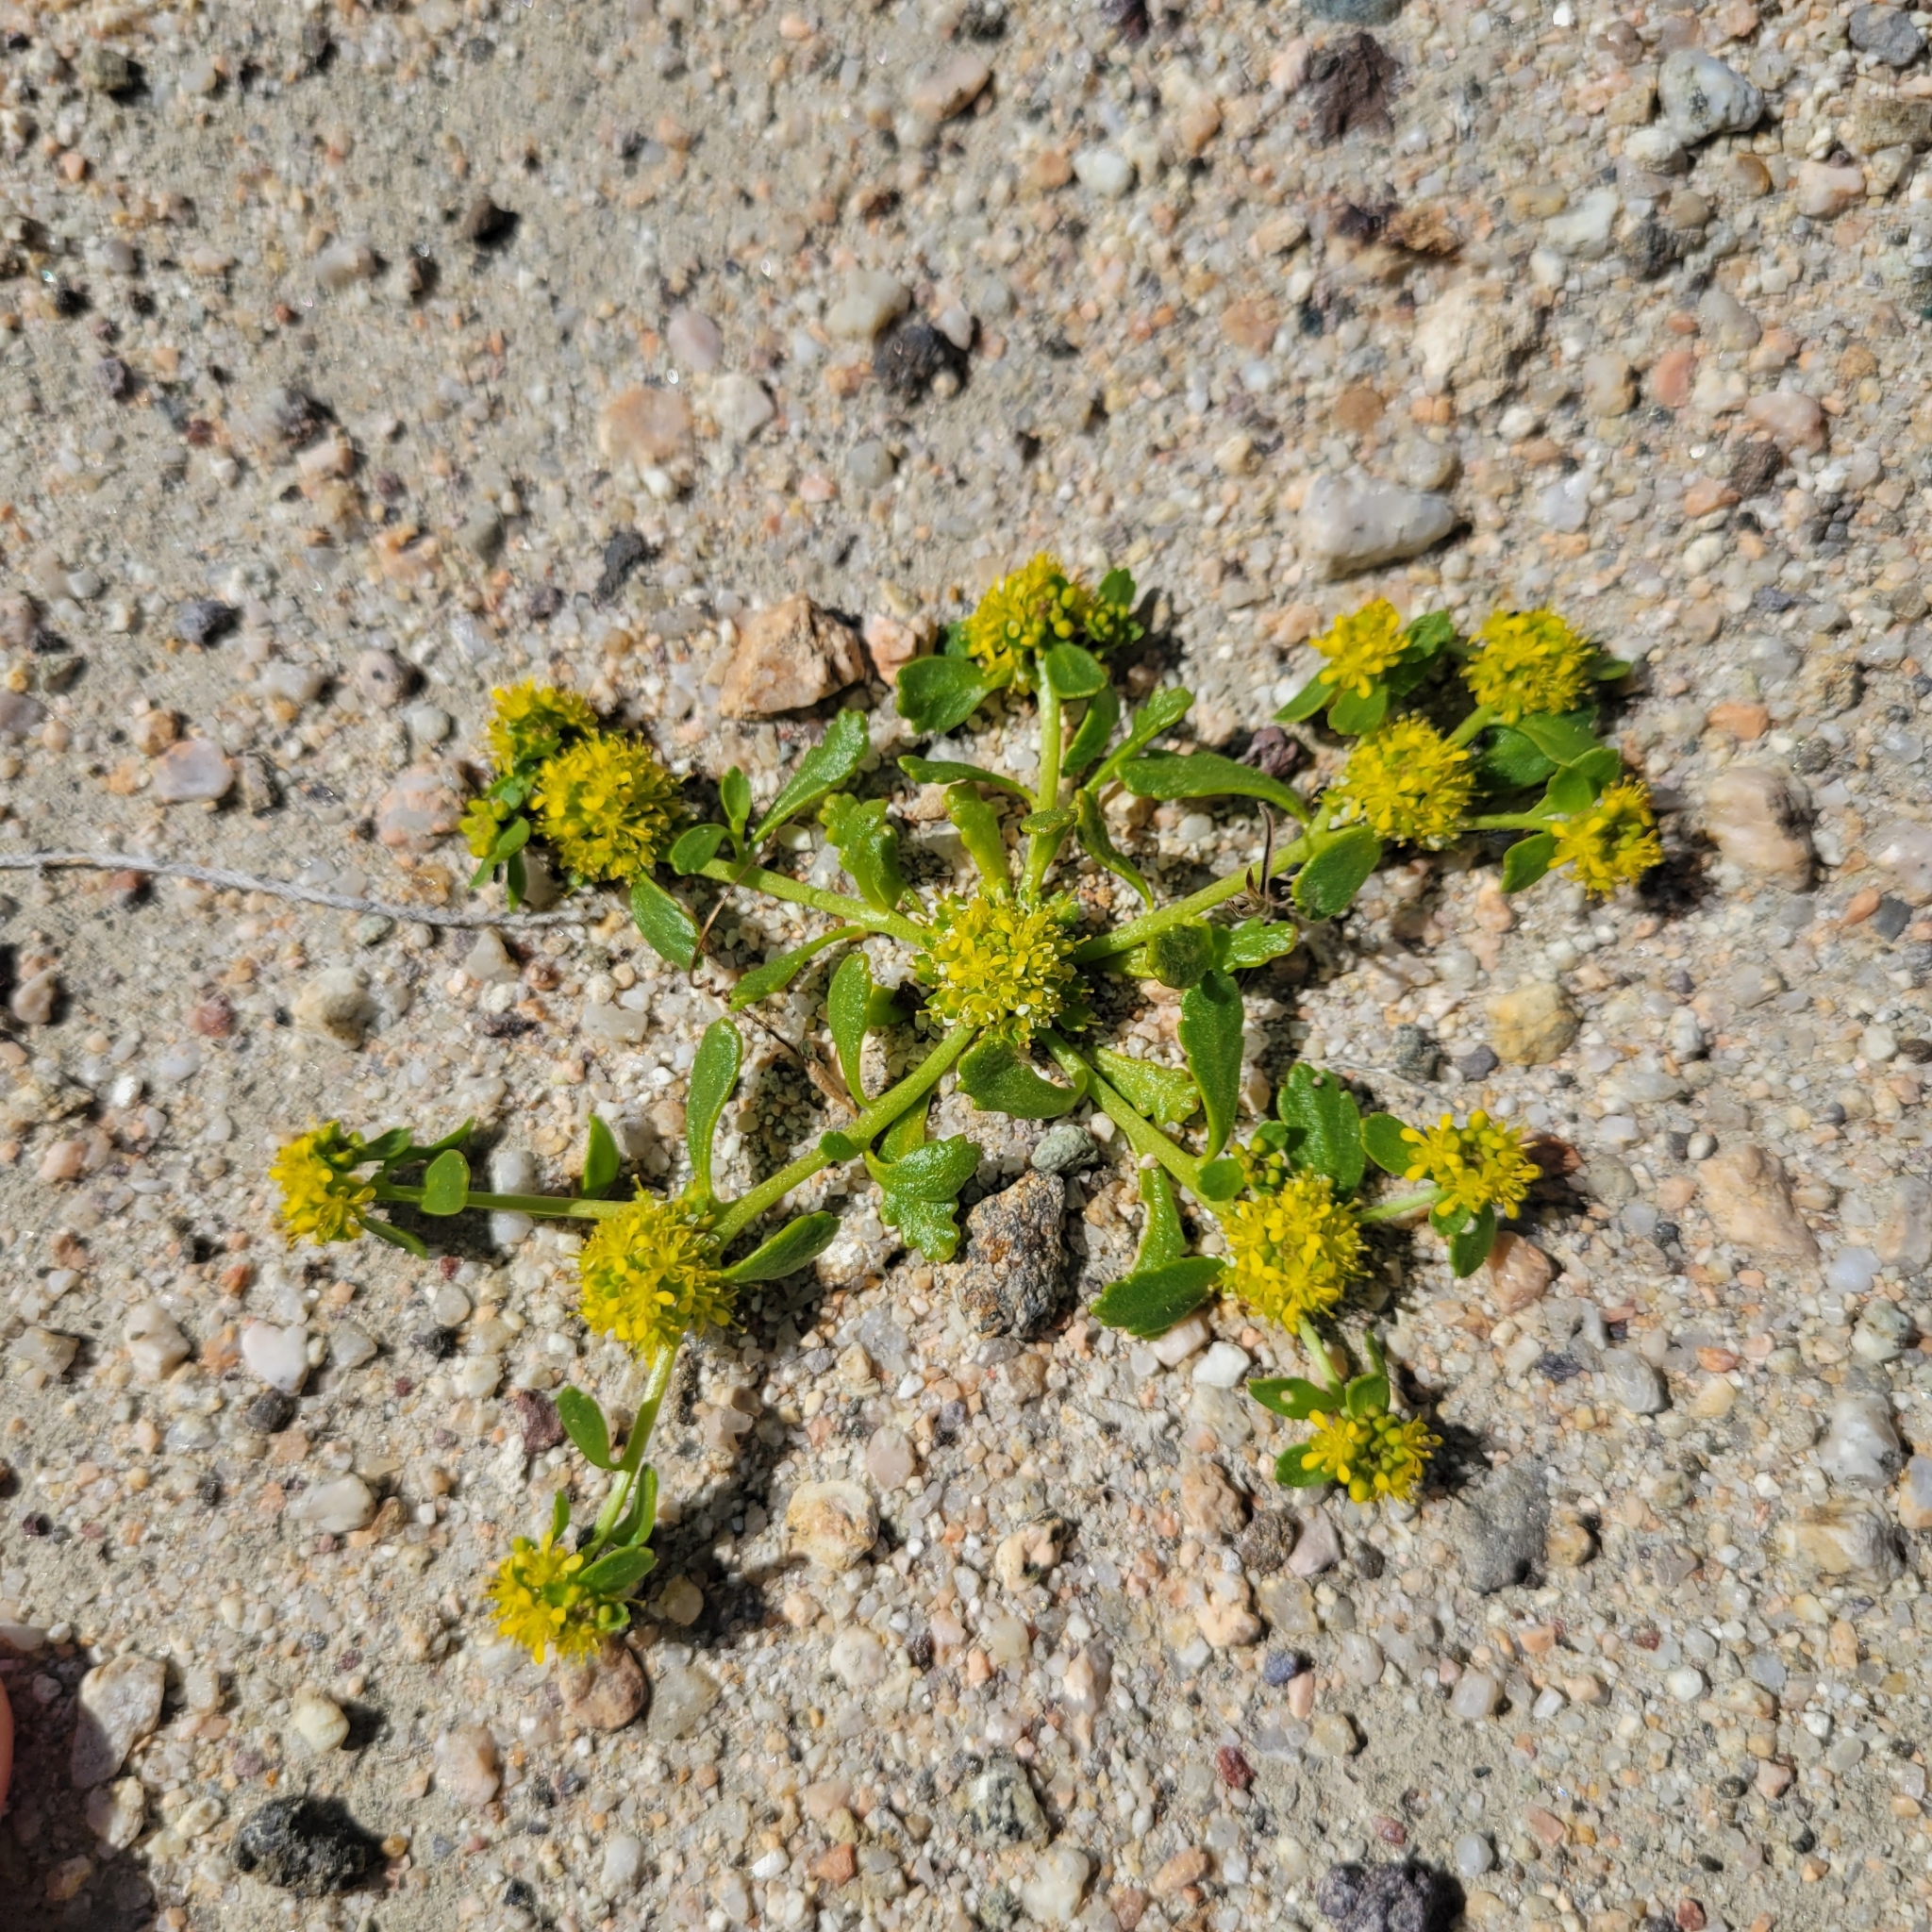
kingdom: Plantae
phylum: Tracheophyta
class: Magnoliopsida
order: Brassicales
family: Brassicaceae
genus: Lepidium
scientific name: Lepidium flavum
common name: Yellow pepperwort
